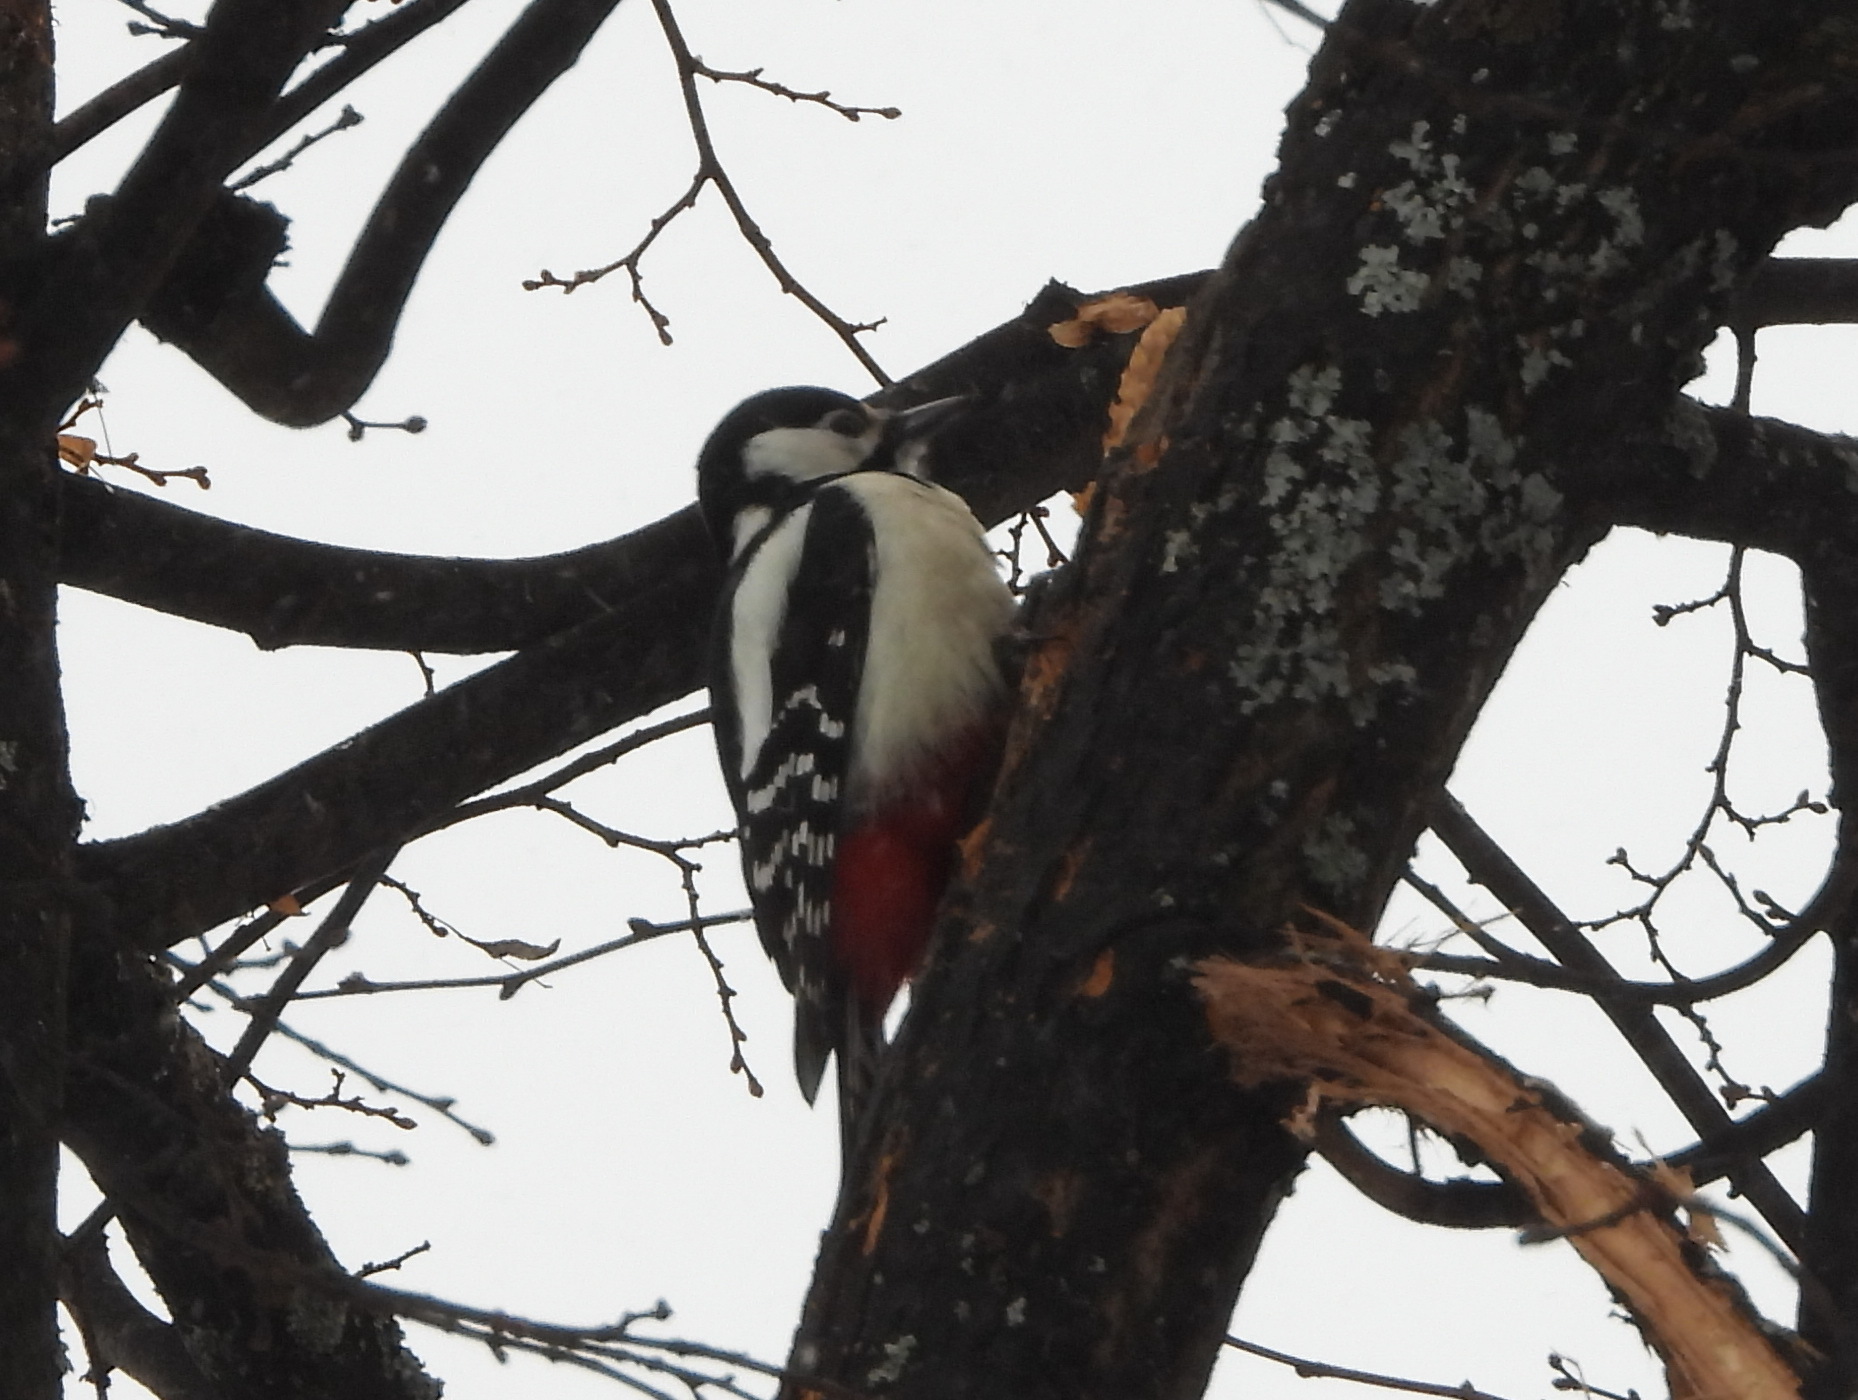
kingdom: Animalia
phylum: Chordata
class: Aves
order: Piciformes
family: Picidae
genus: Dendrocopos
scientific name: Dendrocopos major
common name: Great spotted woodpecker
